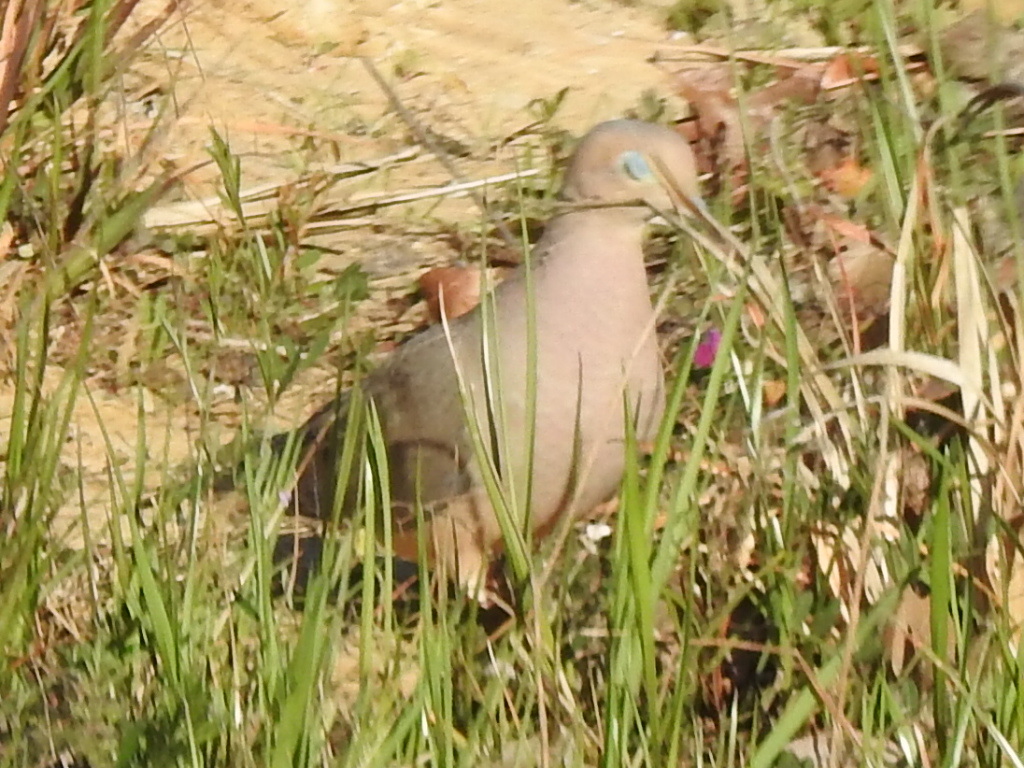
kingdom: Animalia
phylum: Chordata
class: Aves
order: Columbiformes
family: Columbidae
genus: Zenaida
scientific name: Zenaida macroura
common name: Mourning dove
